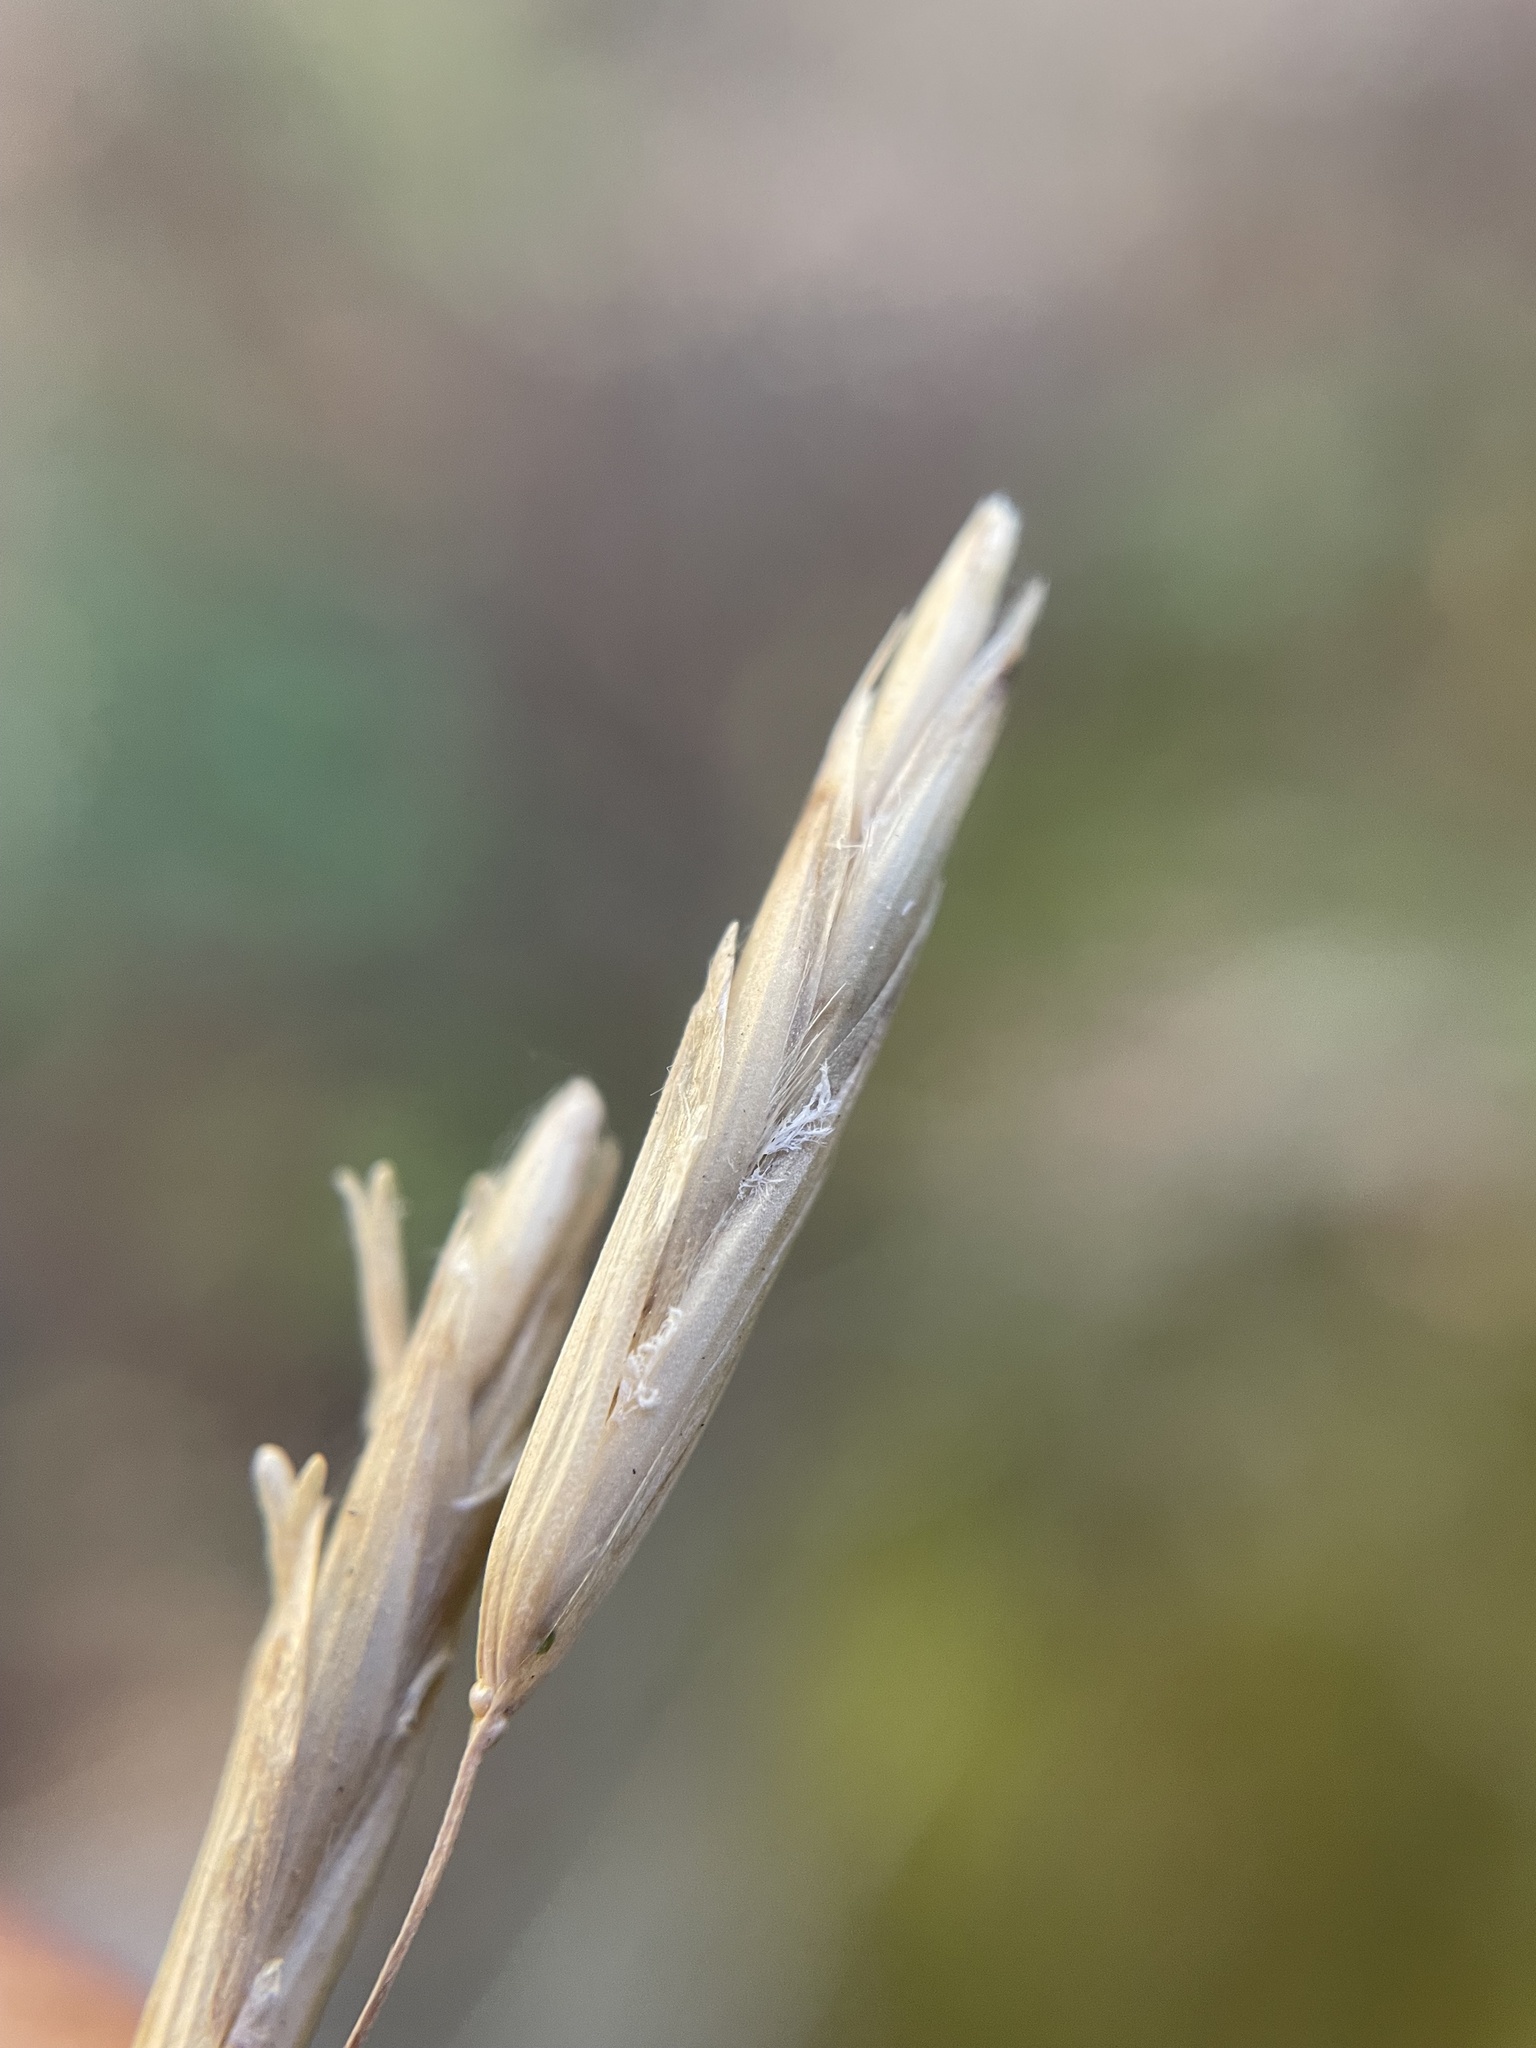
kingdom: Plantae
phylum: Tracheophyta
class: Liliopsida
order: Poales
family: Poaceae
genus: Melica
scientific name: Melica harfordii
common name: Harford's melic
